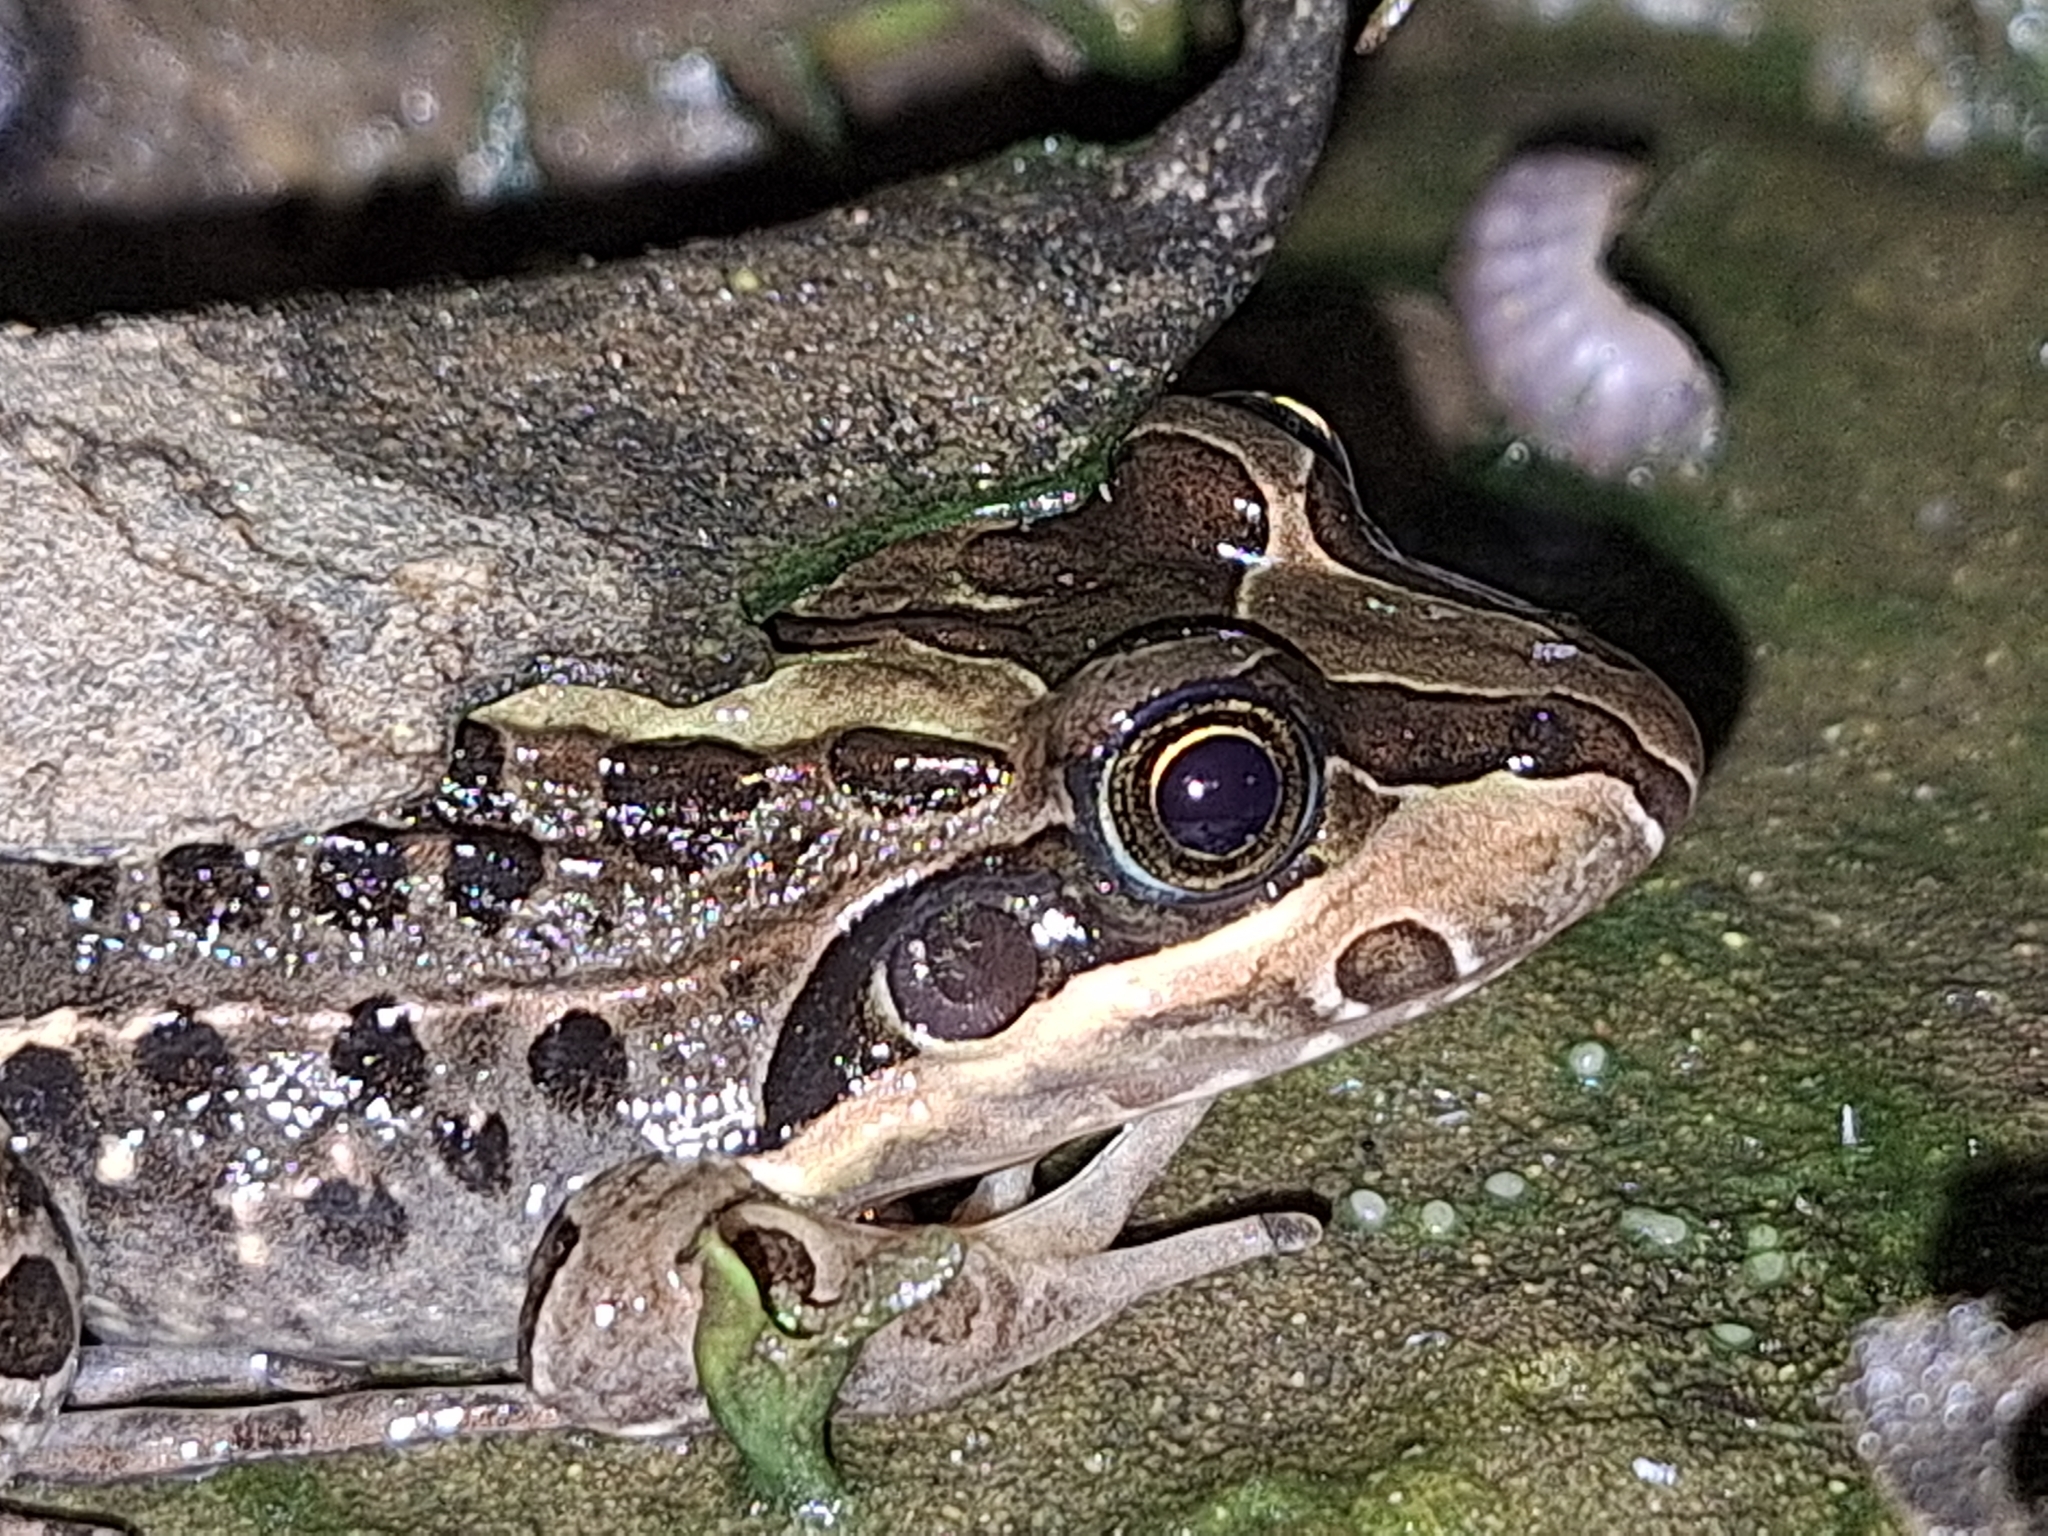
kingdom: Animalia
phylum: Chordata
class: Amphibia
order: Anura
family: Leptodactylidae
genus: Leptodactylus
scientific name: Leptodactylus luctator
